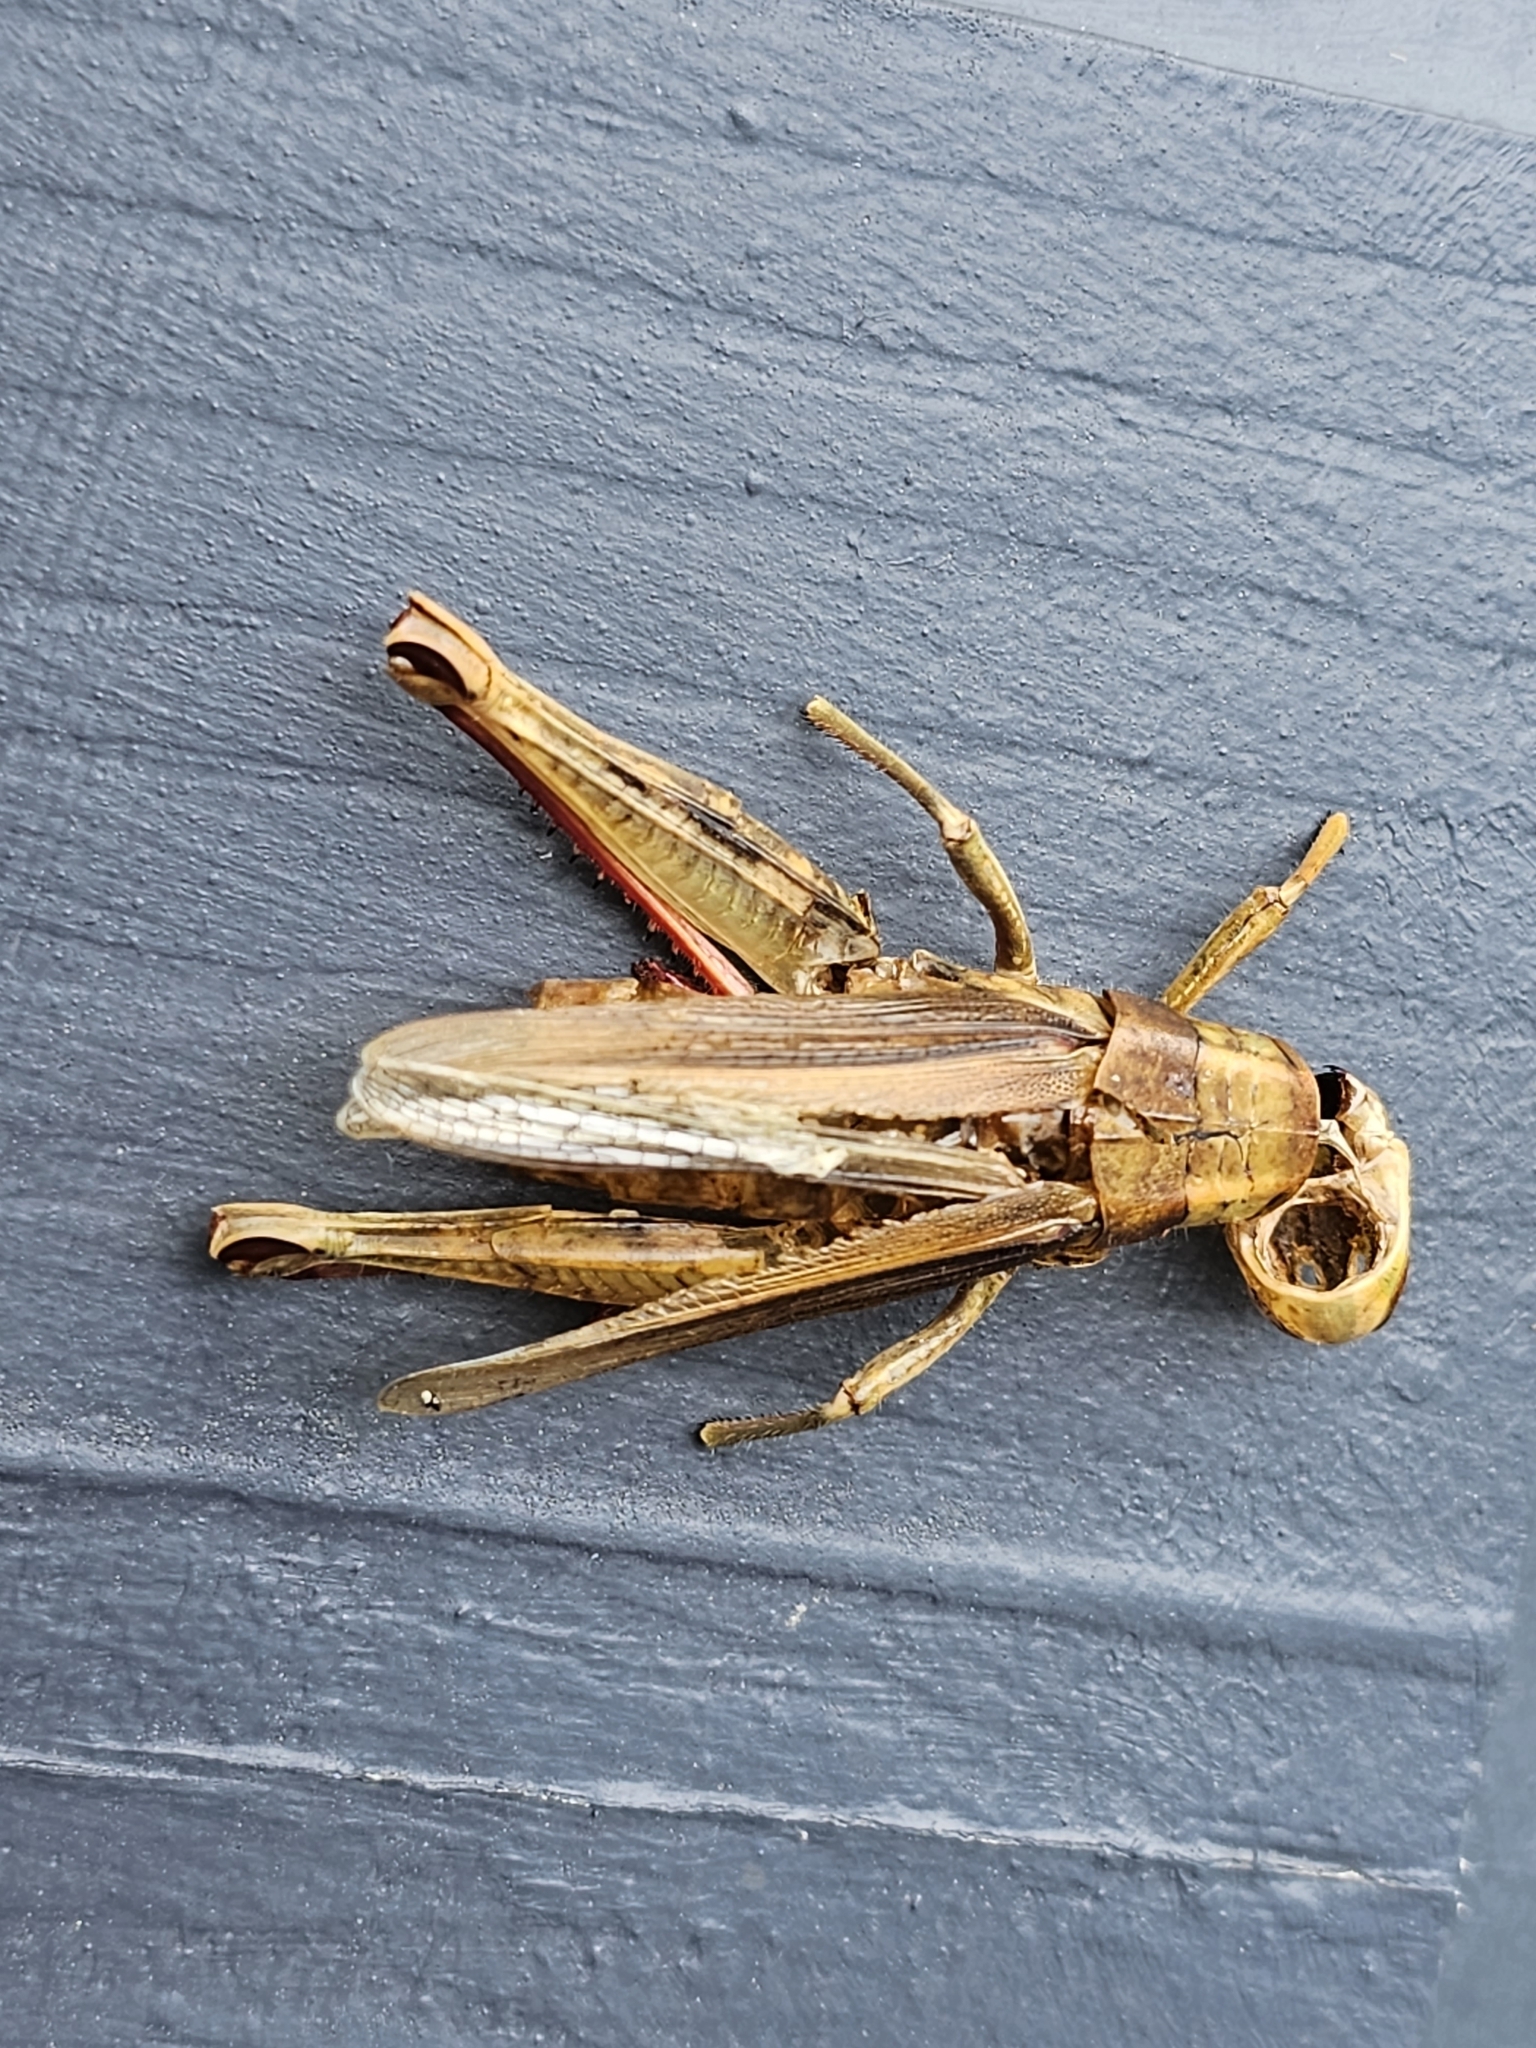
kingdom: Animalia
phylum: Arthropoda
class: Insecta
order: Orthoptera
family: Acrididae
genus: Melanoplus
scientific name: Melanoplus bivittatus
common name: Two-striped grasshopper
